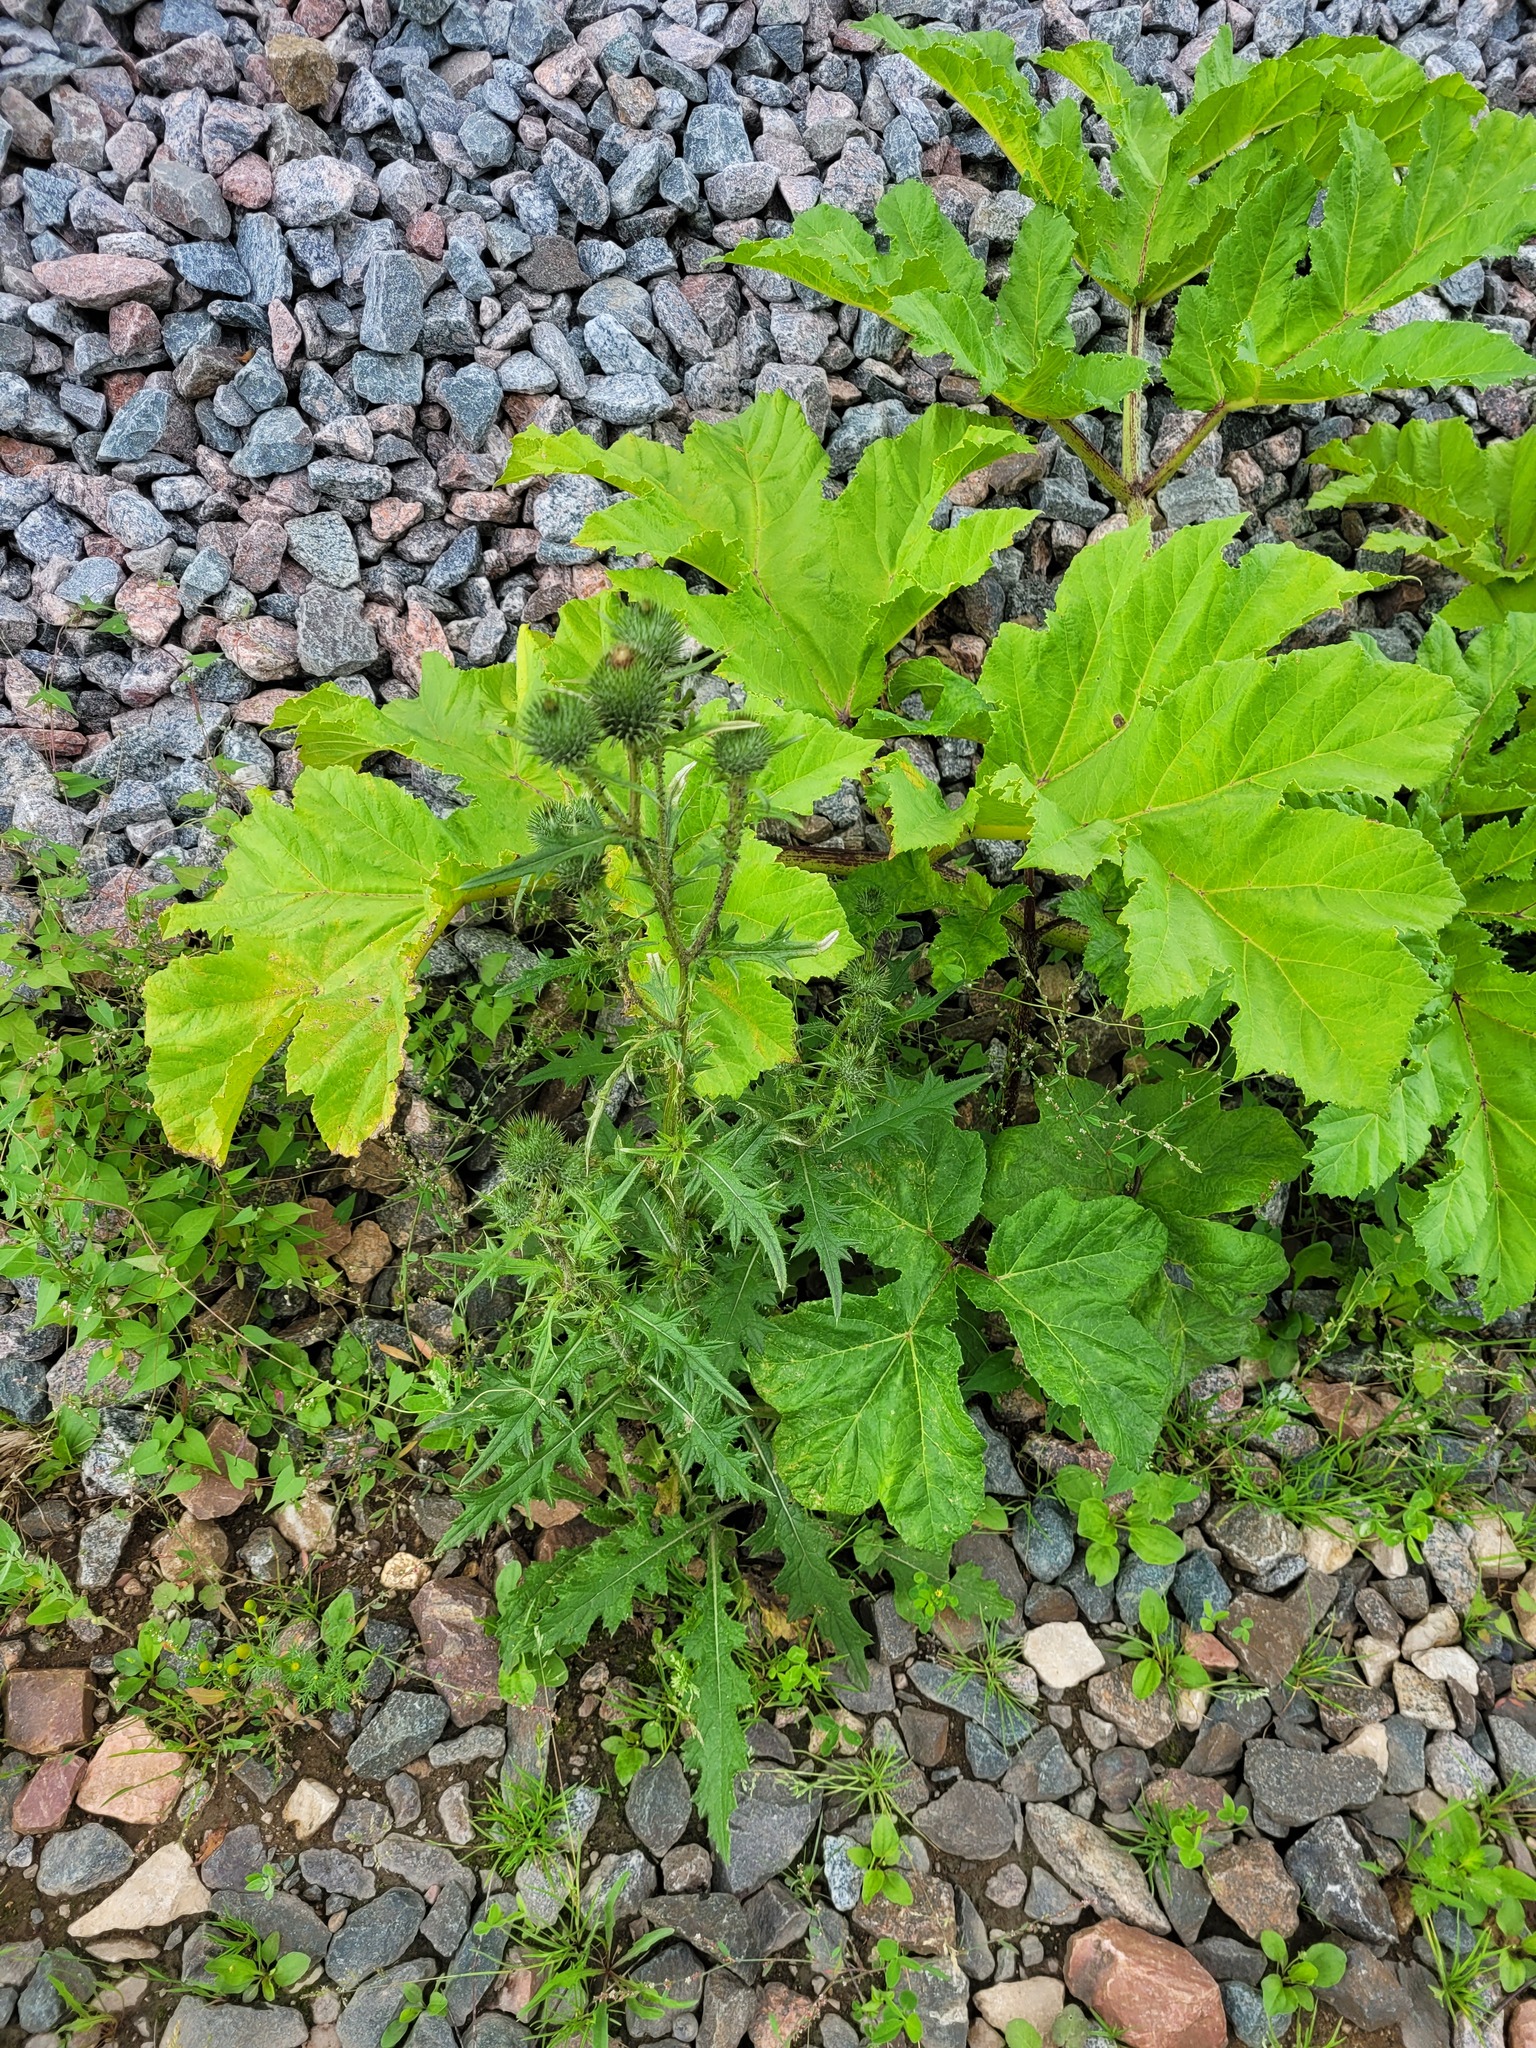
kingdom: Plantae
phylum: Tracheophyta
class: Magnoliopsida
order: Asterales
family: Asteraceae
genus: Cirsium
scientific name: Cirsium vulgare
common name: Bull thistle
